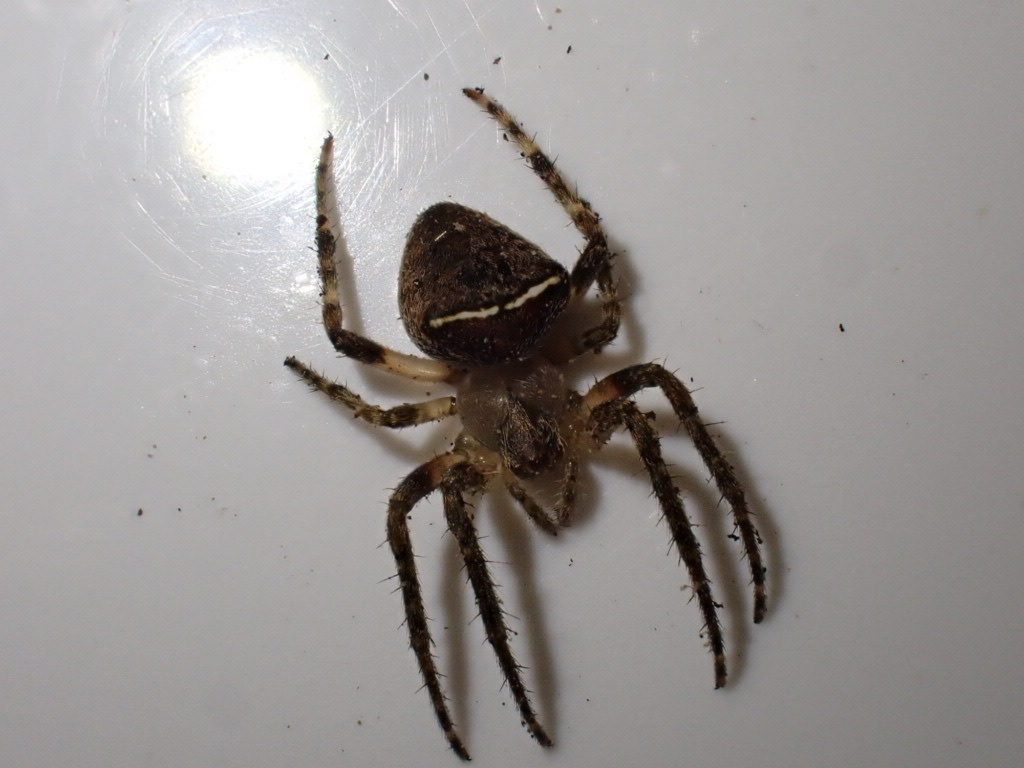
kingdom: Animalia
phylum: Arthropoda
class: Arachnida
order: Araneae
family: Araneidae
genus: Zealaranea
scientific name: Zealaranea crassa
